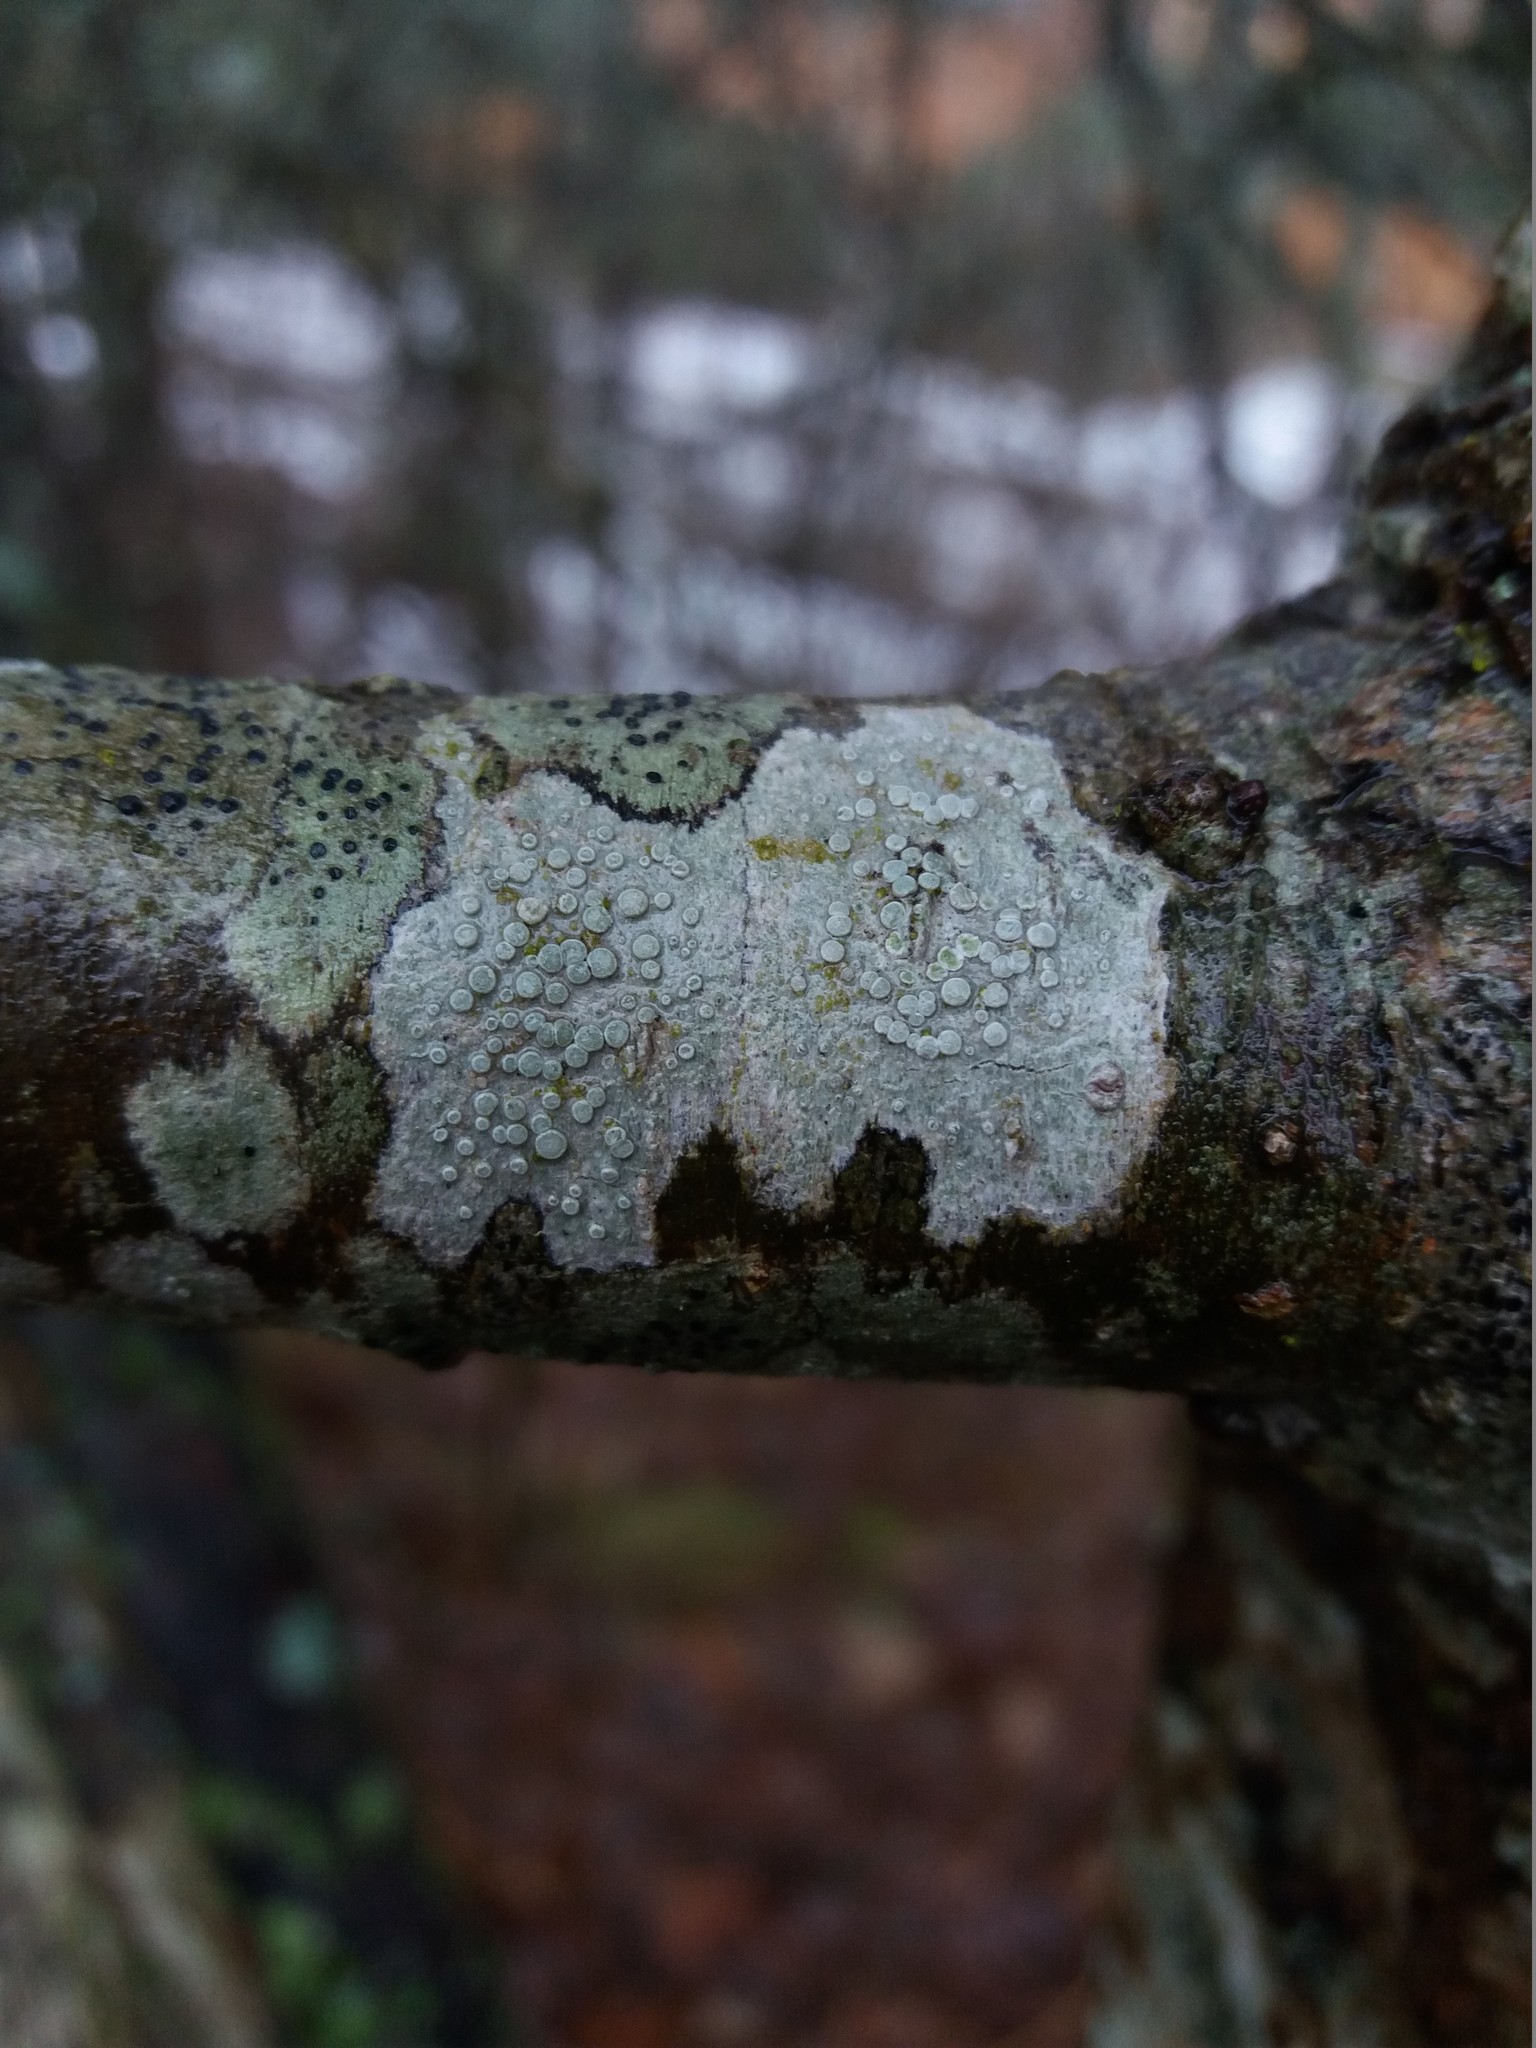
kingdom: Fungi
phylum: Ascomycota
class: Lecanoromycetes
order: Lecanorales
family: Lecanoraceae
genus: Glaucomaria
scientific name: Glaucomaria carpinea
